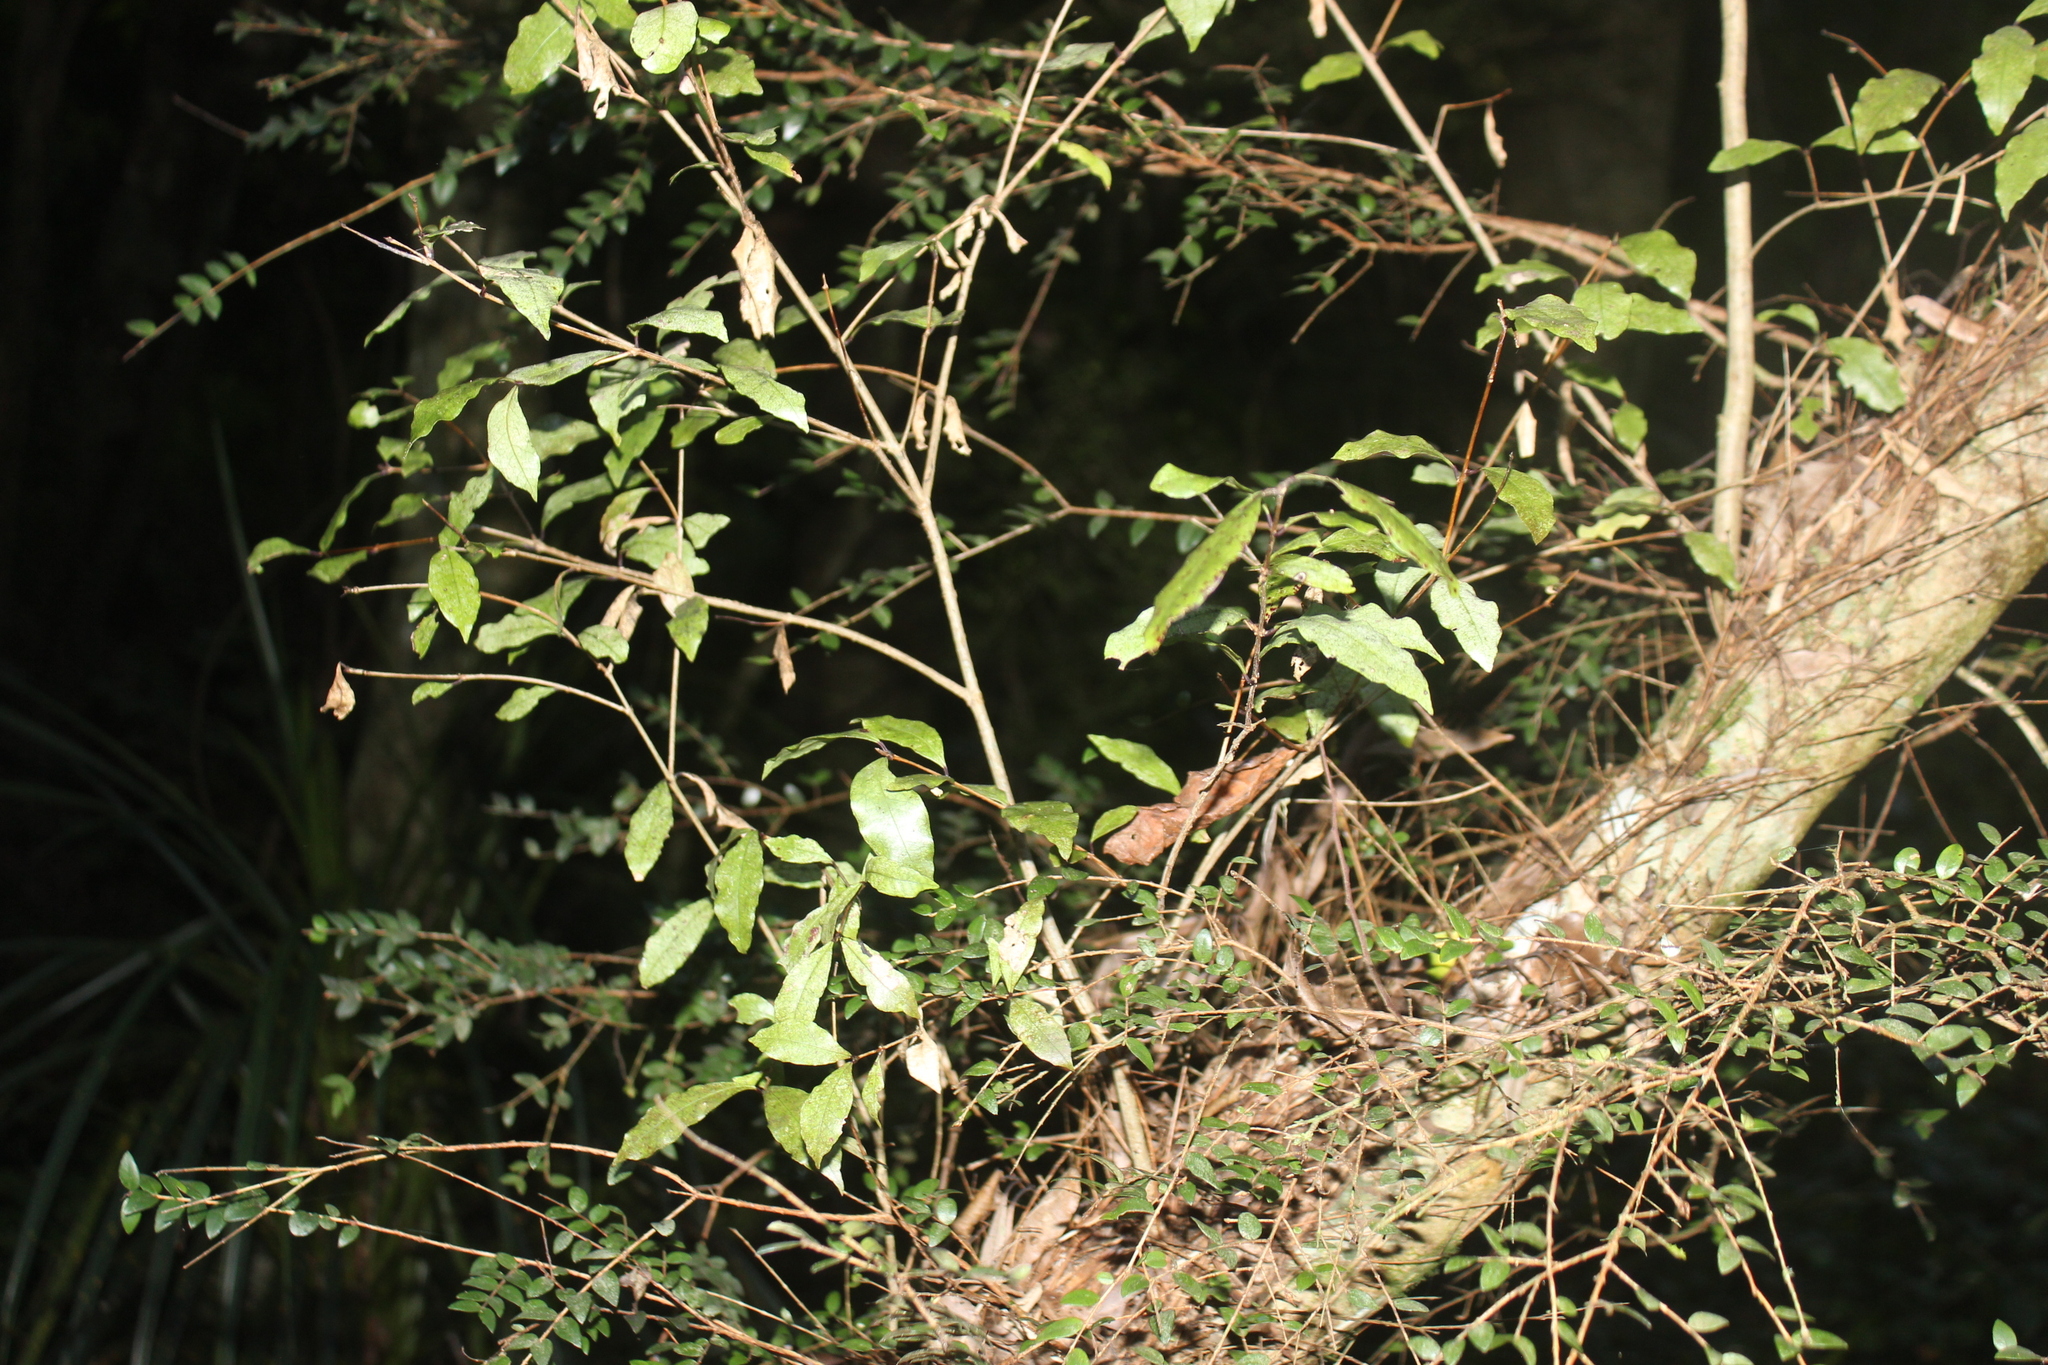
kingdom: Plantae
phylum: Tracheophyta
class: Magnoliopsida
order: Myrtales
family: Myrtaceae
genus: Syzygium
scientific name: Syzygium maire
